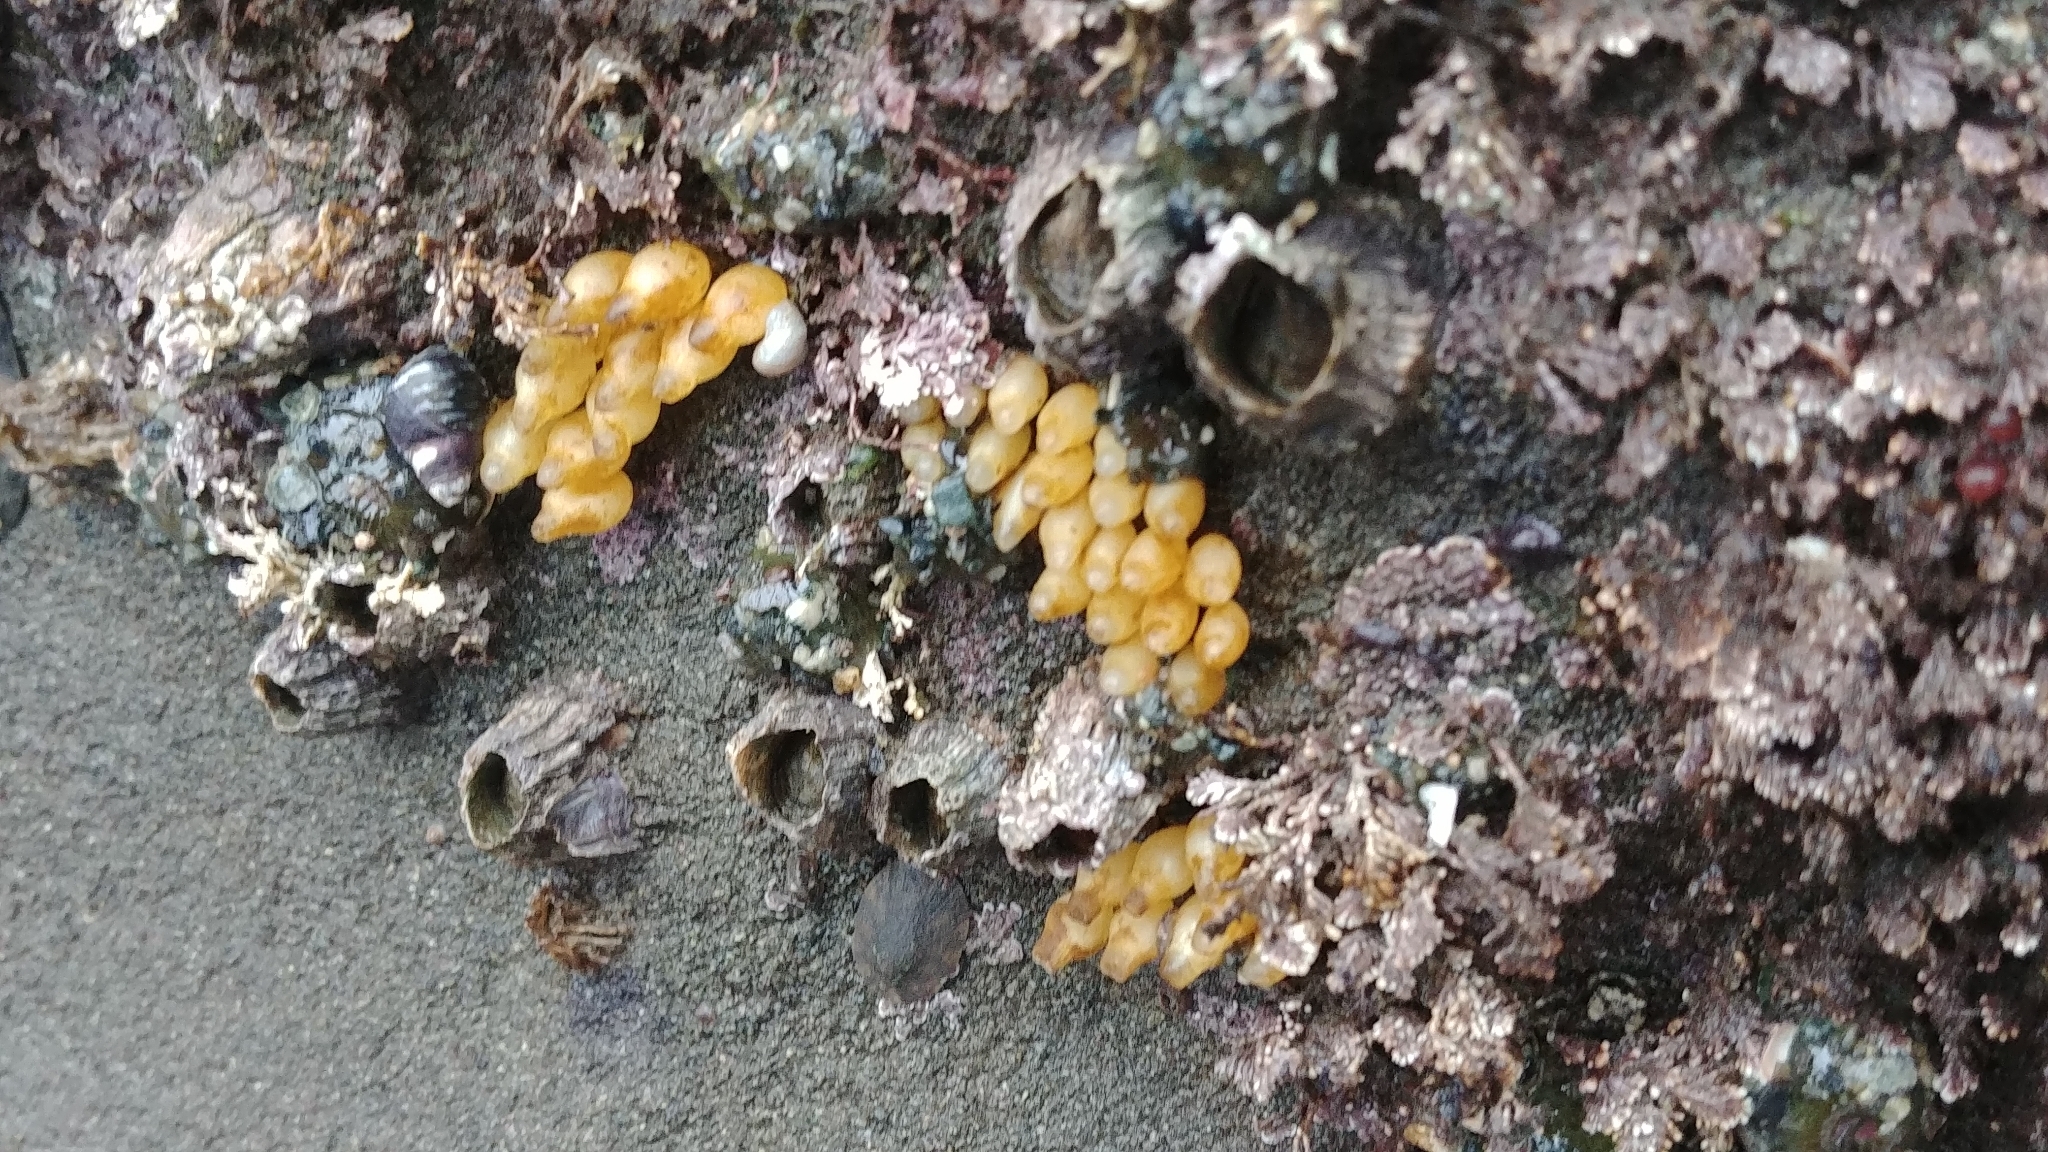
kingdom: Animalia
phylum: Mollusca
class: Gastropoda
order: Neogastropoda
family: Muricidae
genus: Nucella
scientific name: Nucella ostrina
